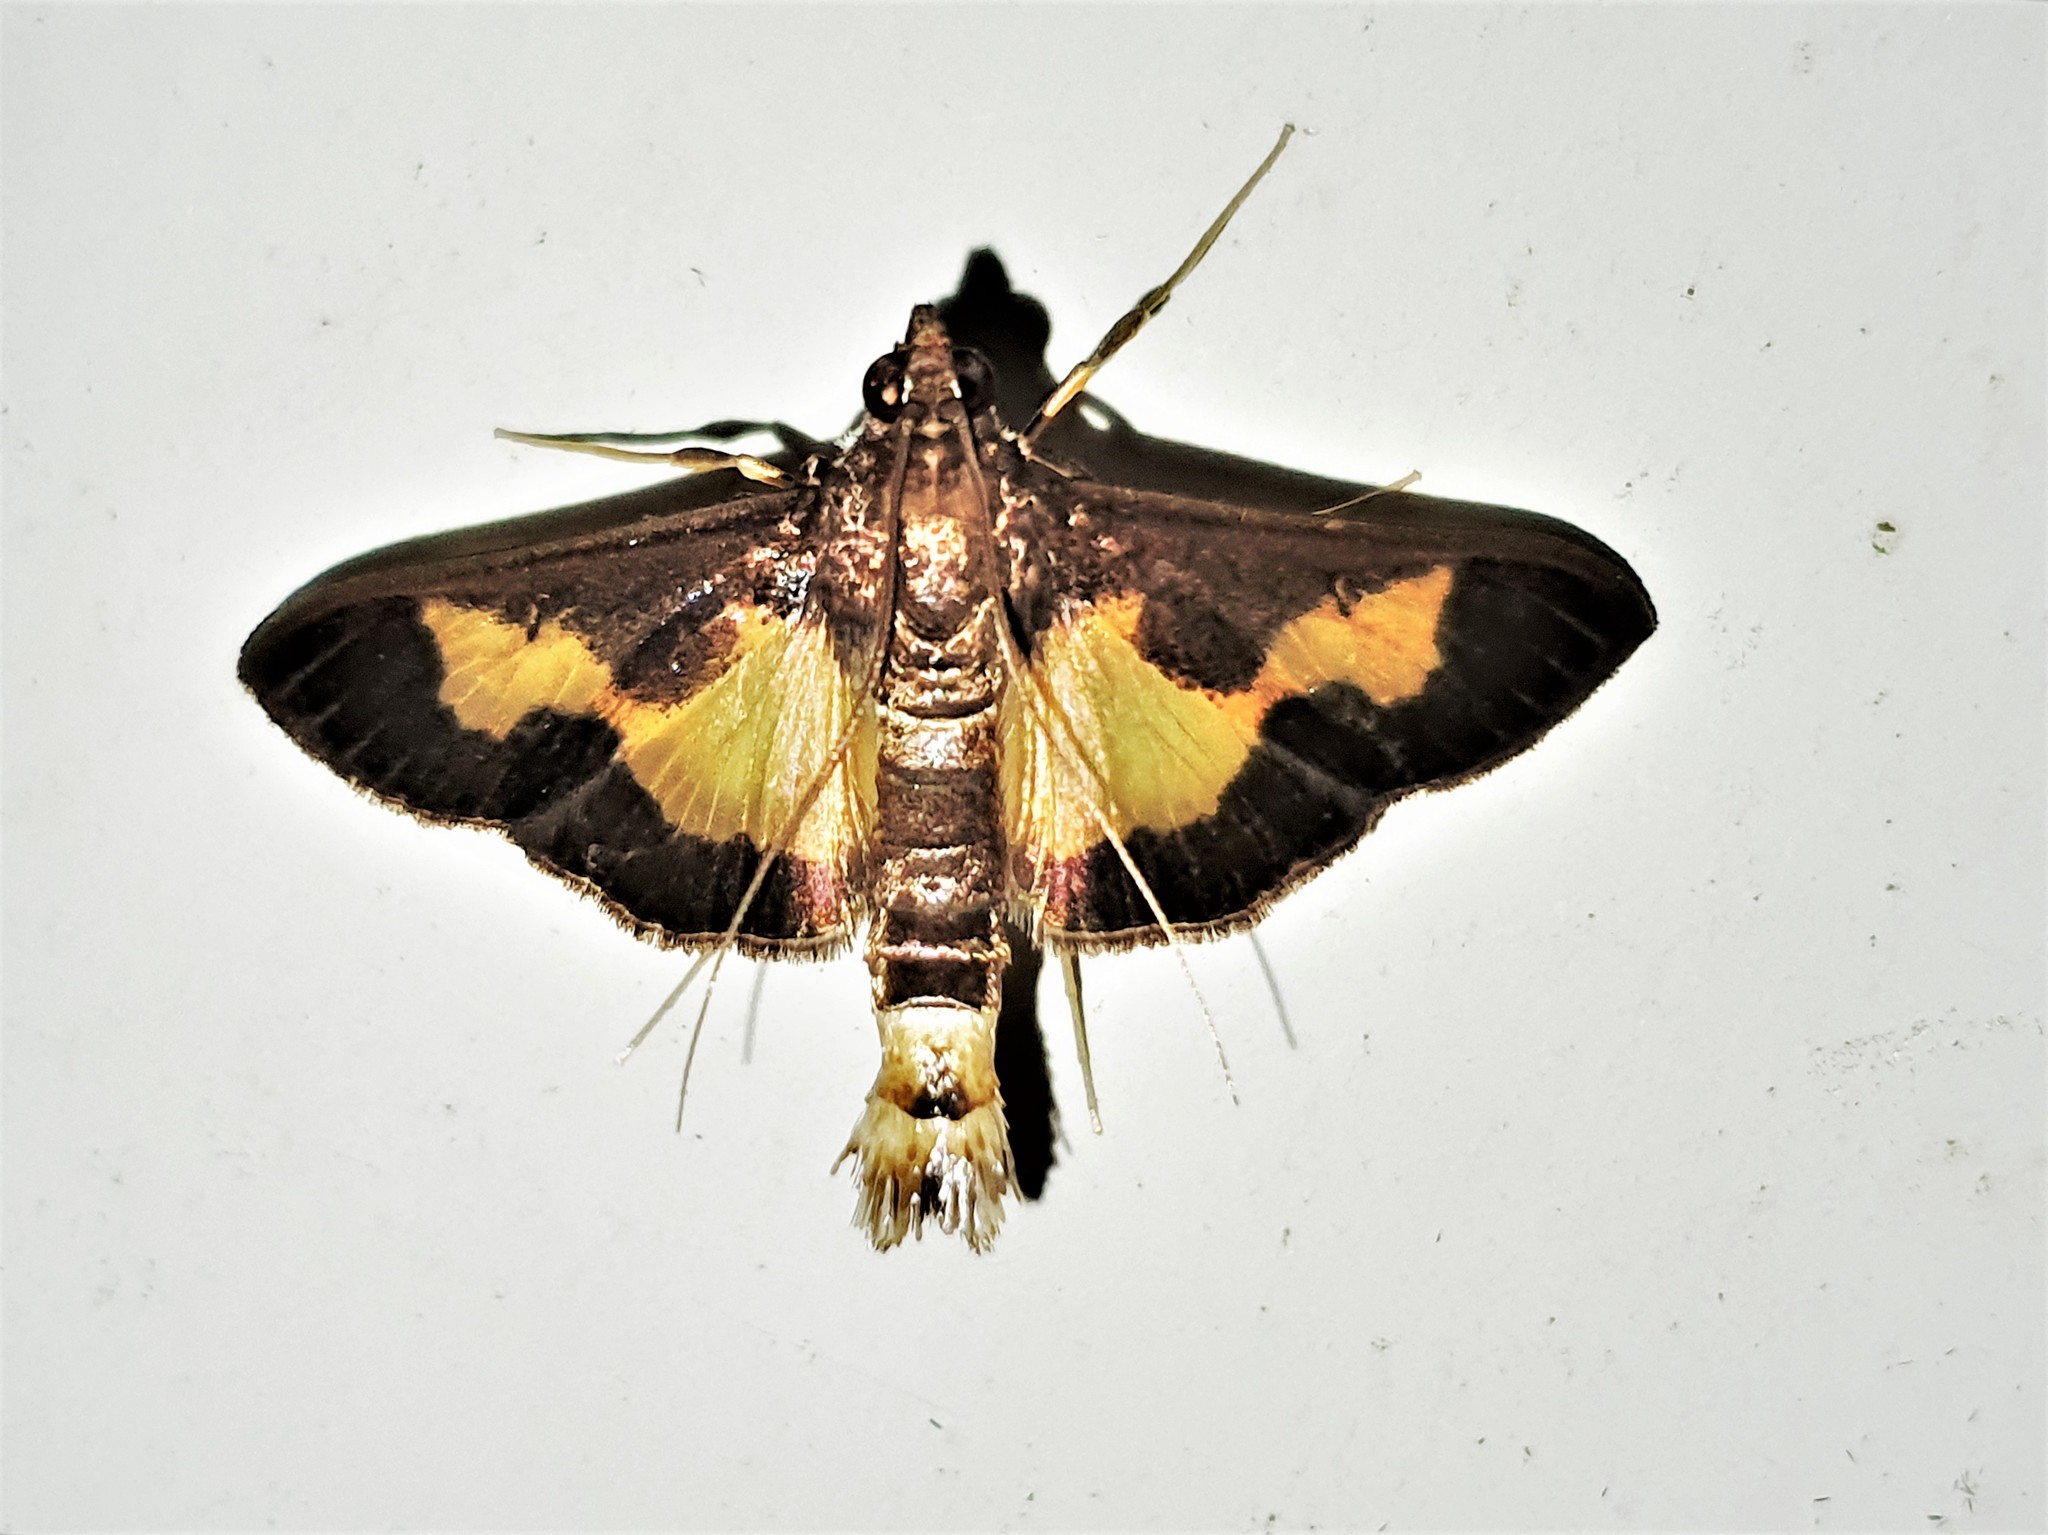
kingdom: Animalia
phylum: Arthropoda
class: Insecta
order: Lepidoptera
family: Crambidae
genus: Cryptographis
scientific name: Cryptographis nitidalis
